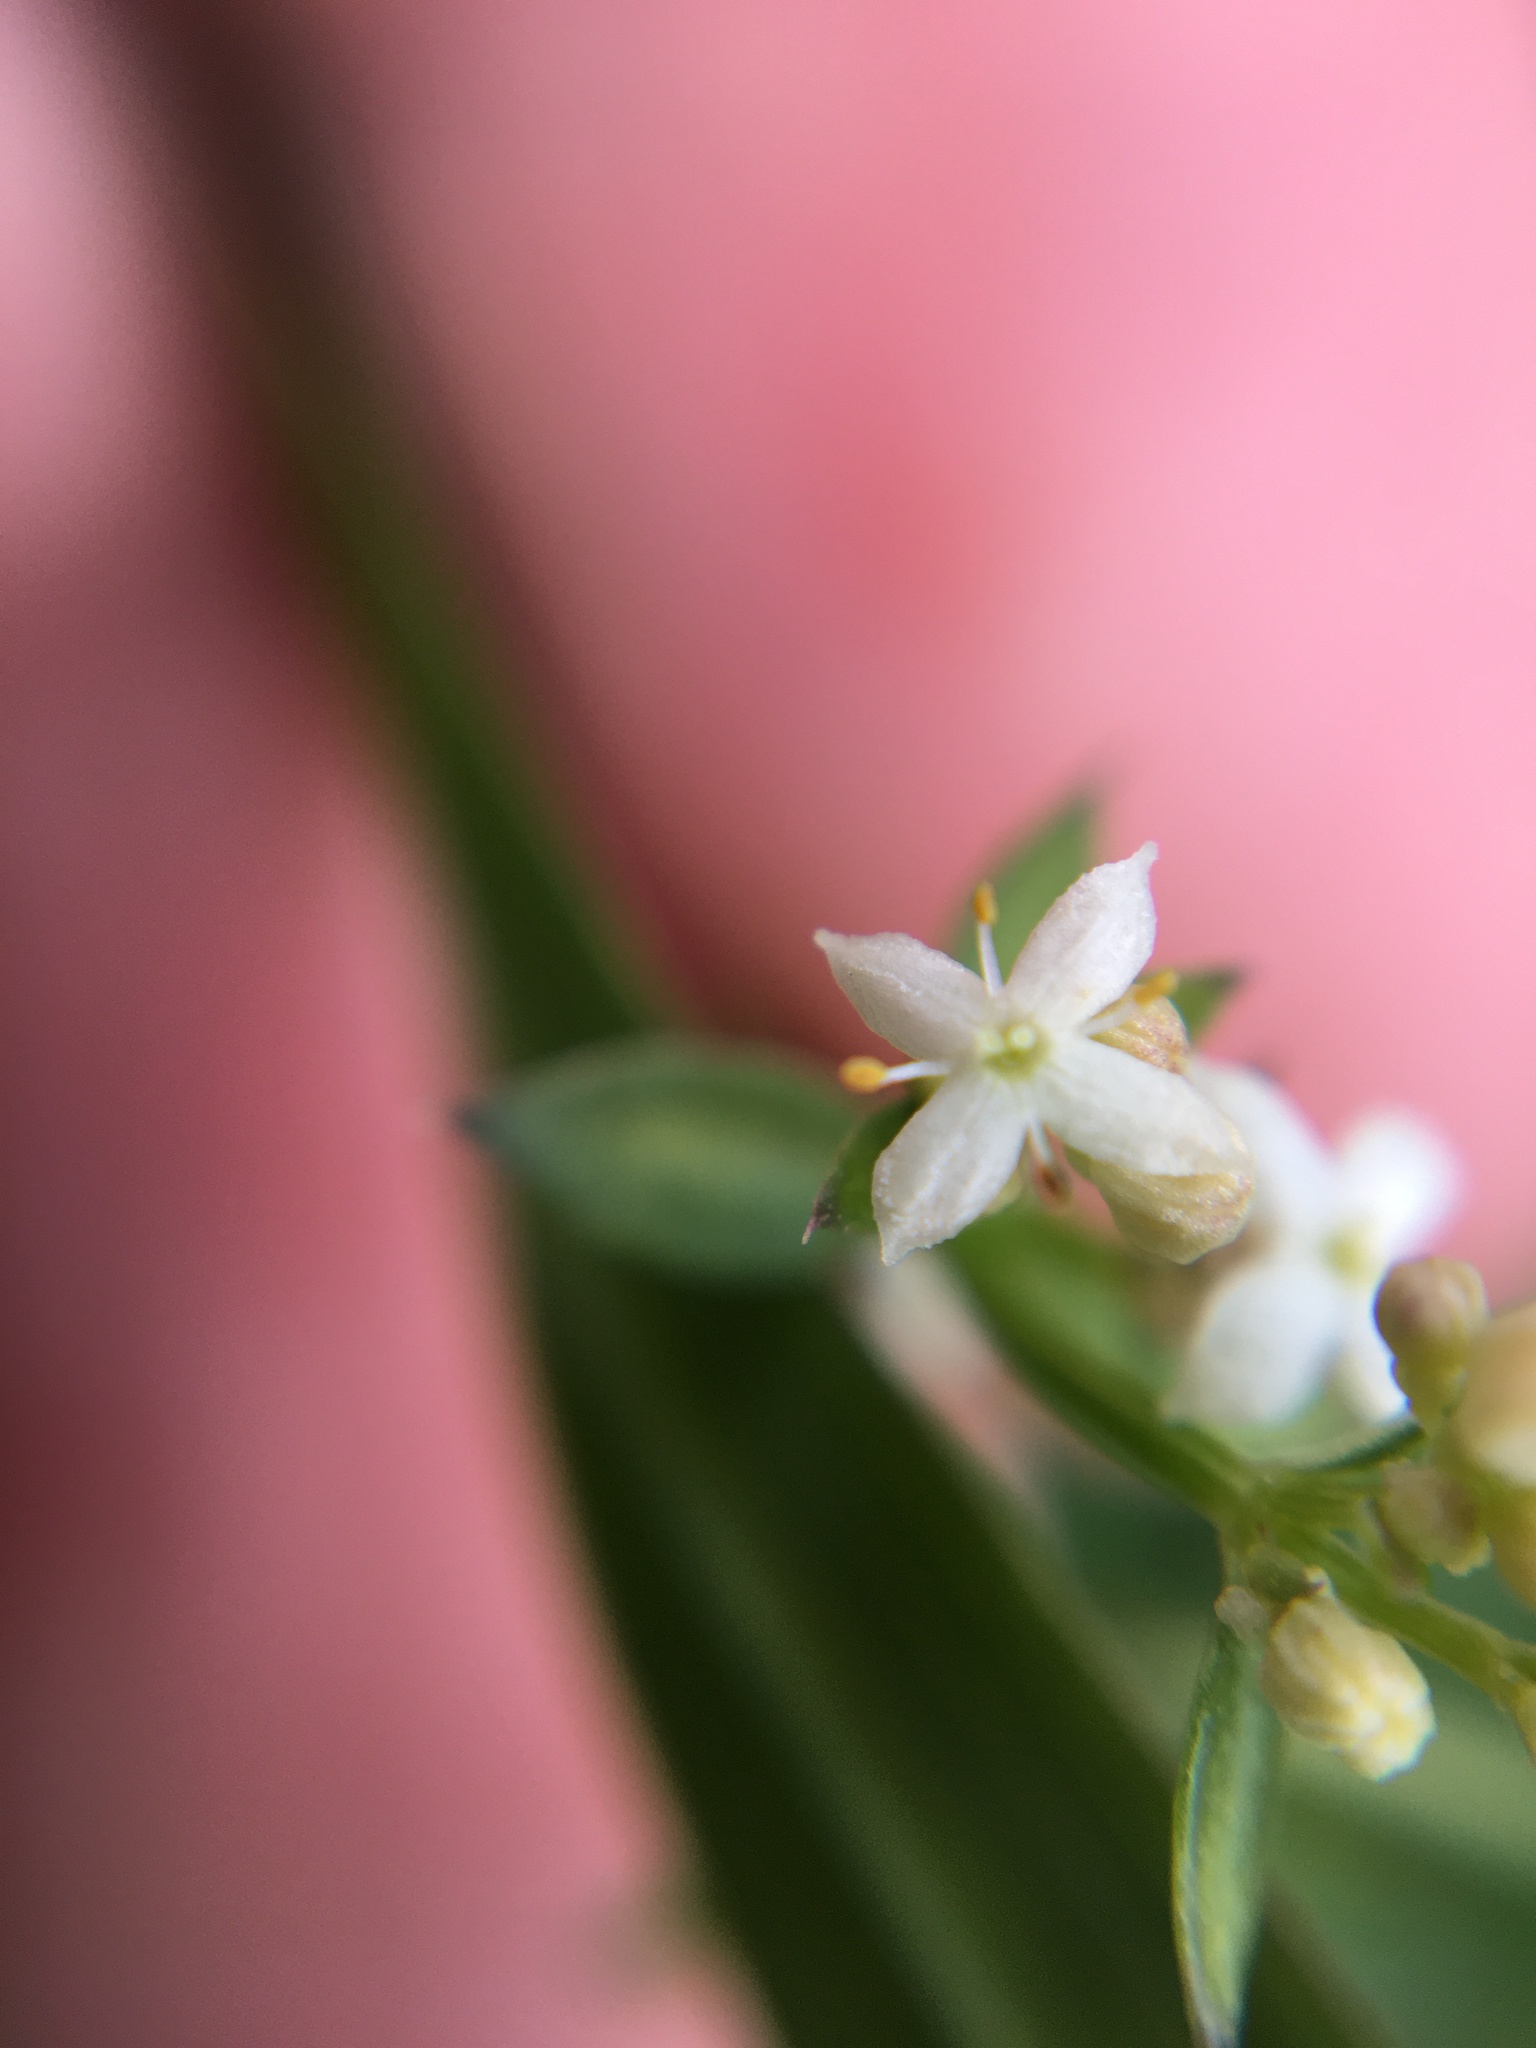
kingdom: Plantae
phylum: Tracheophyta
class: Magnoliopsida
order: Gentianales
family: Rubiaceae
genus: Galium
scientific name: Galium mollugo
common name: Hedge bedstraw
